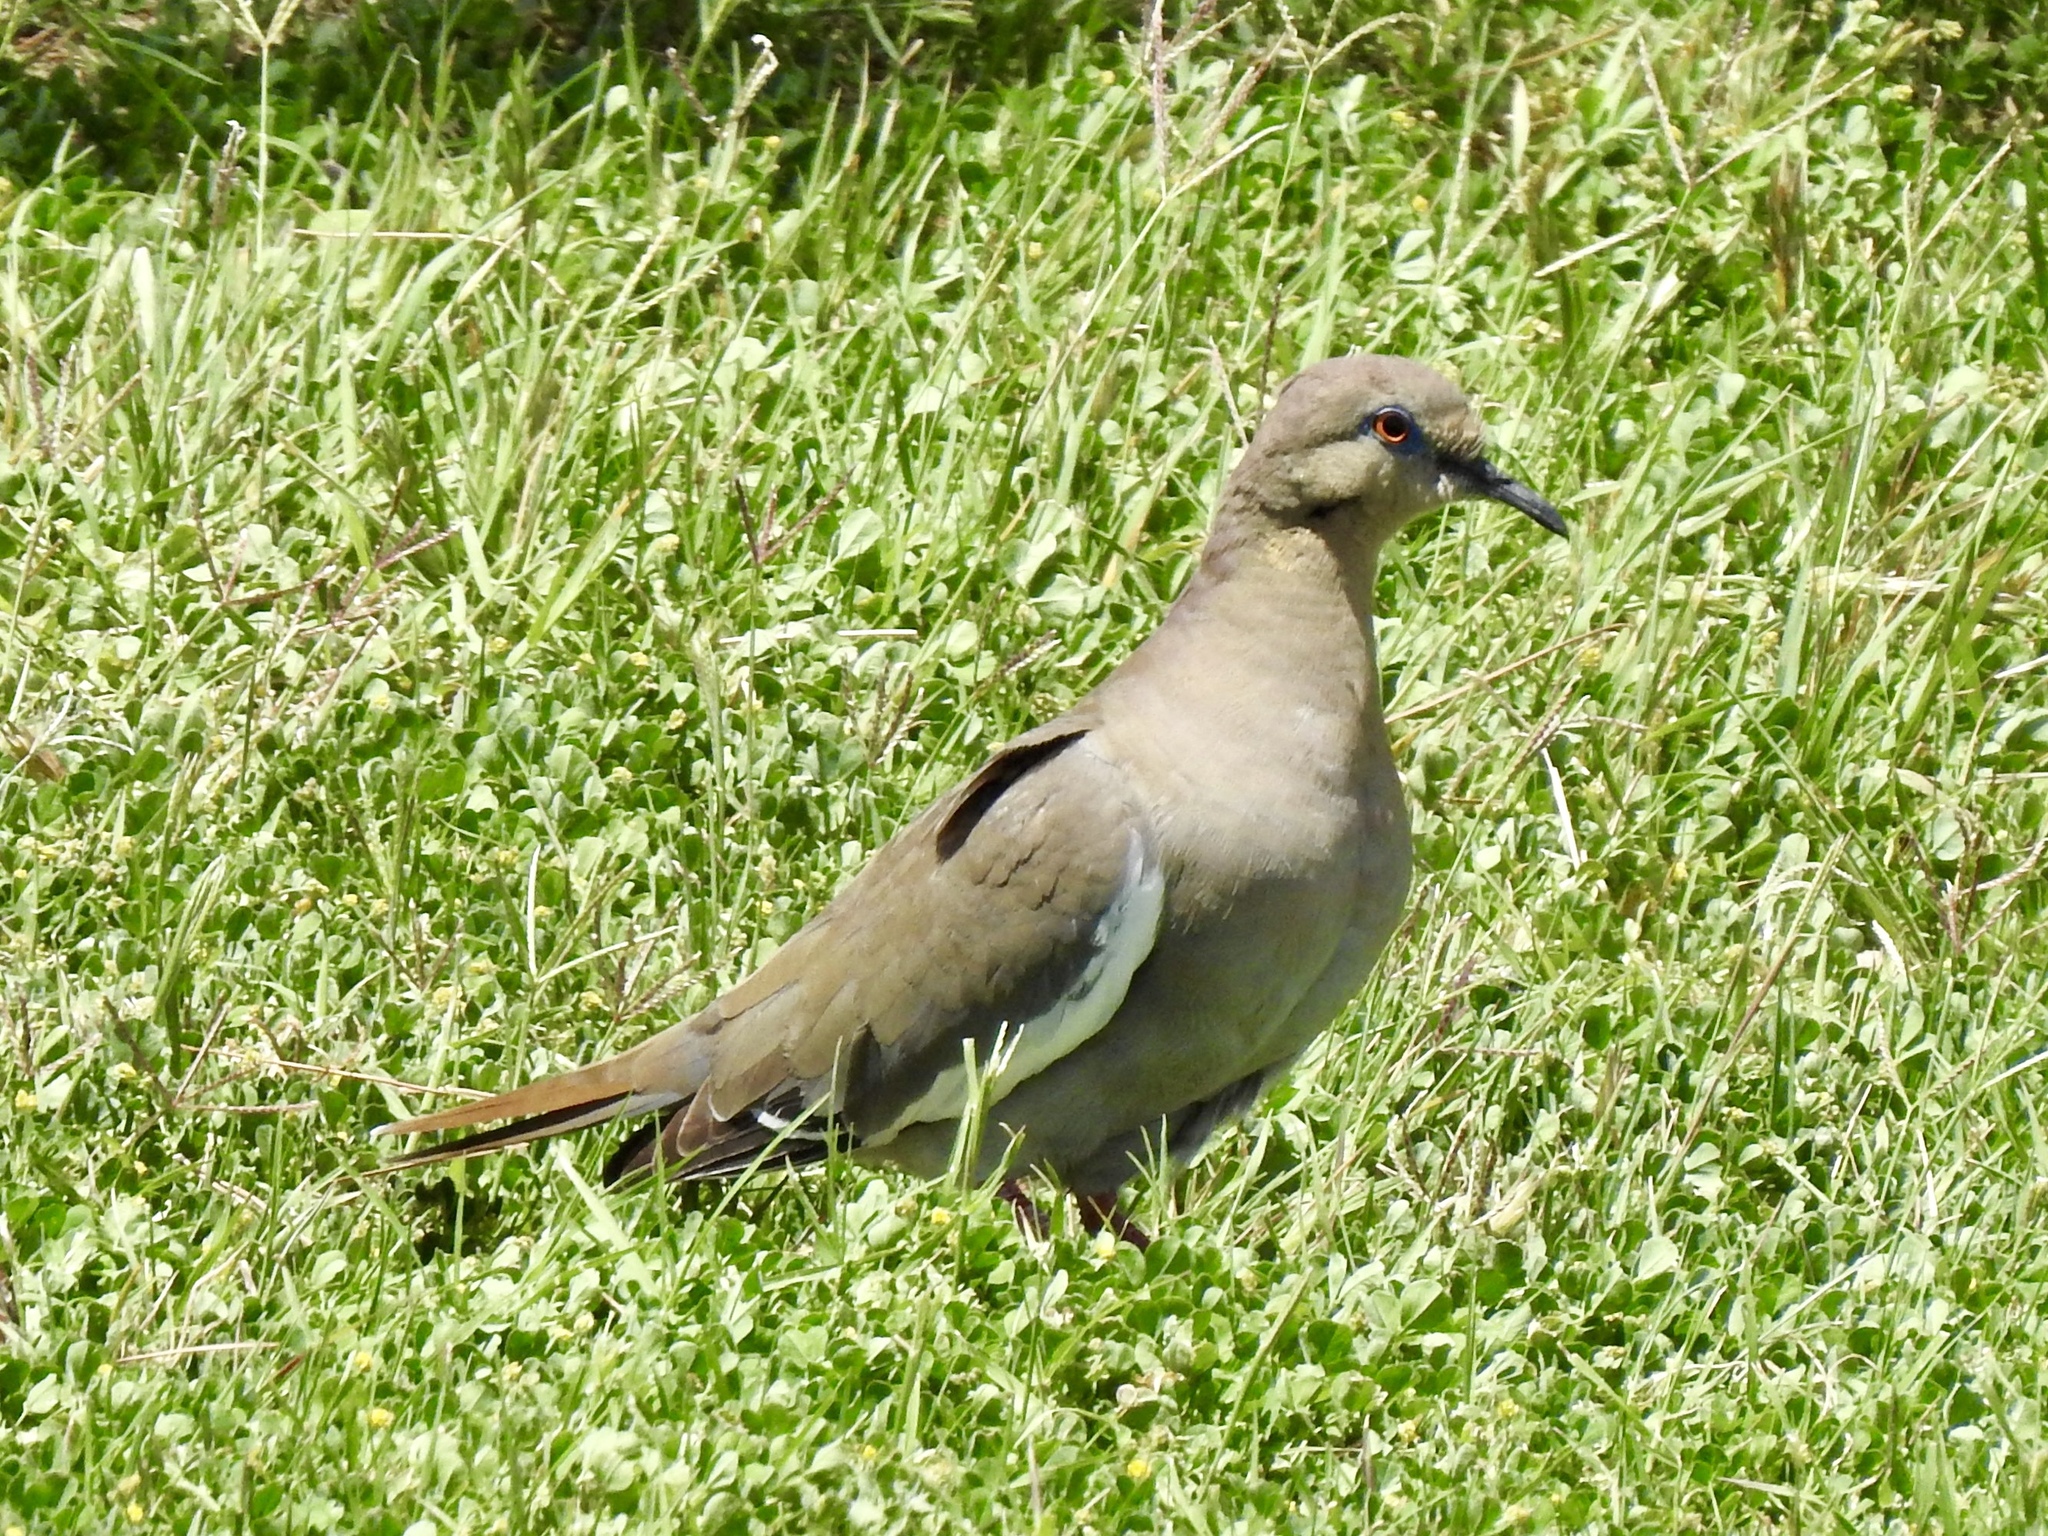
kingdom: Animalia
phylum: Chordata
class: Aves
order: Columbiformes
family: Columbidae
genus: Zenaida
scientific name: Zenaida asiatica
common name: White-winged dove
